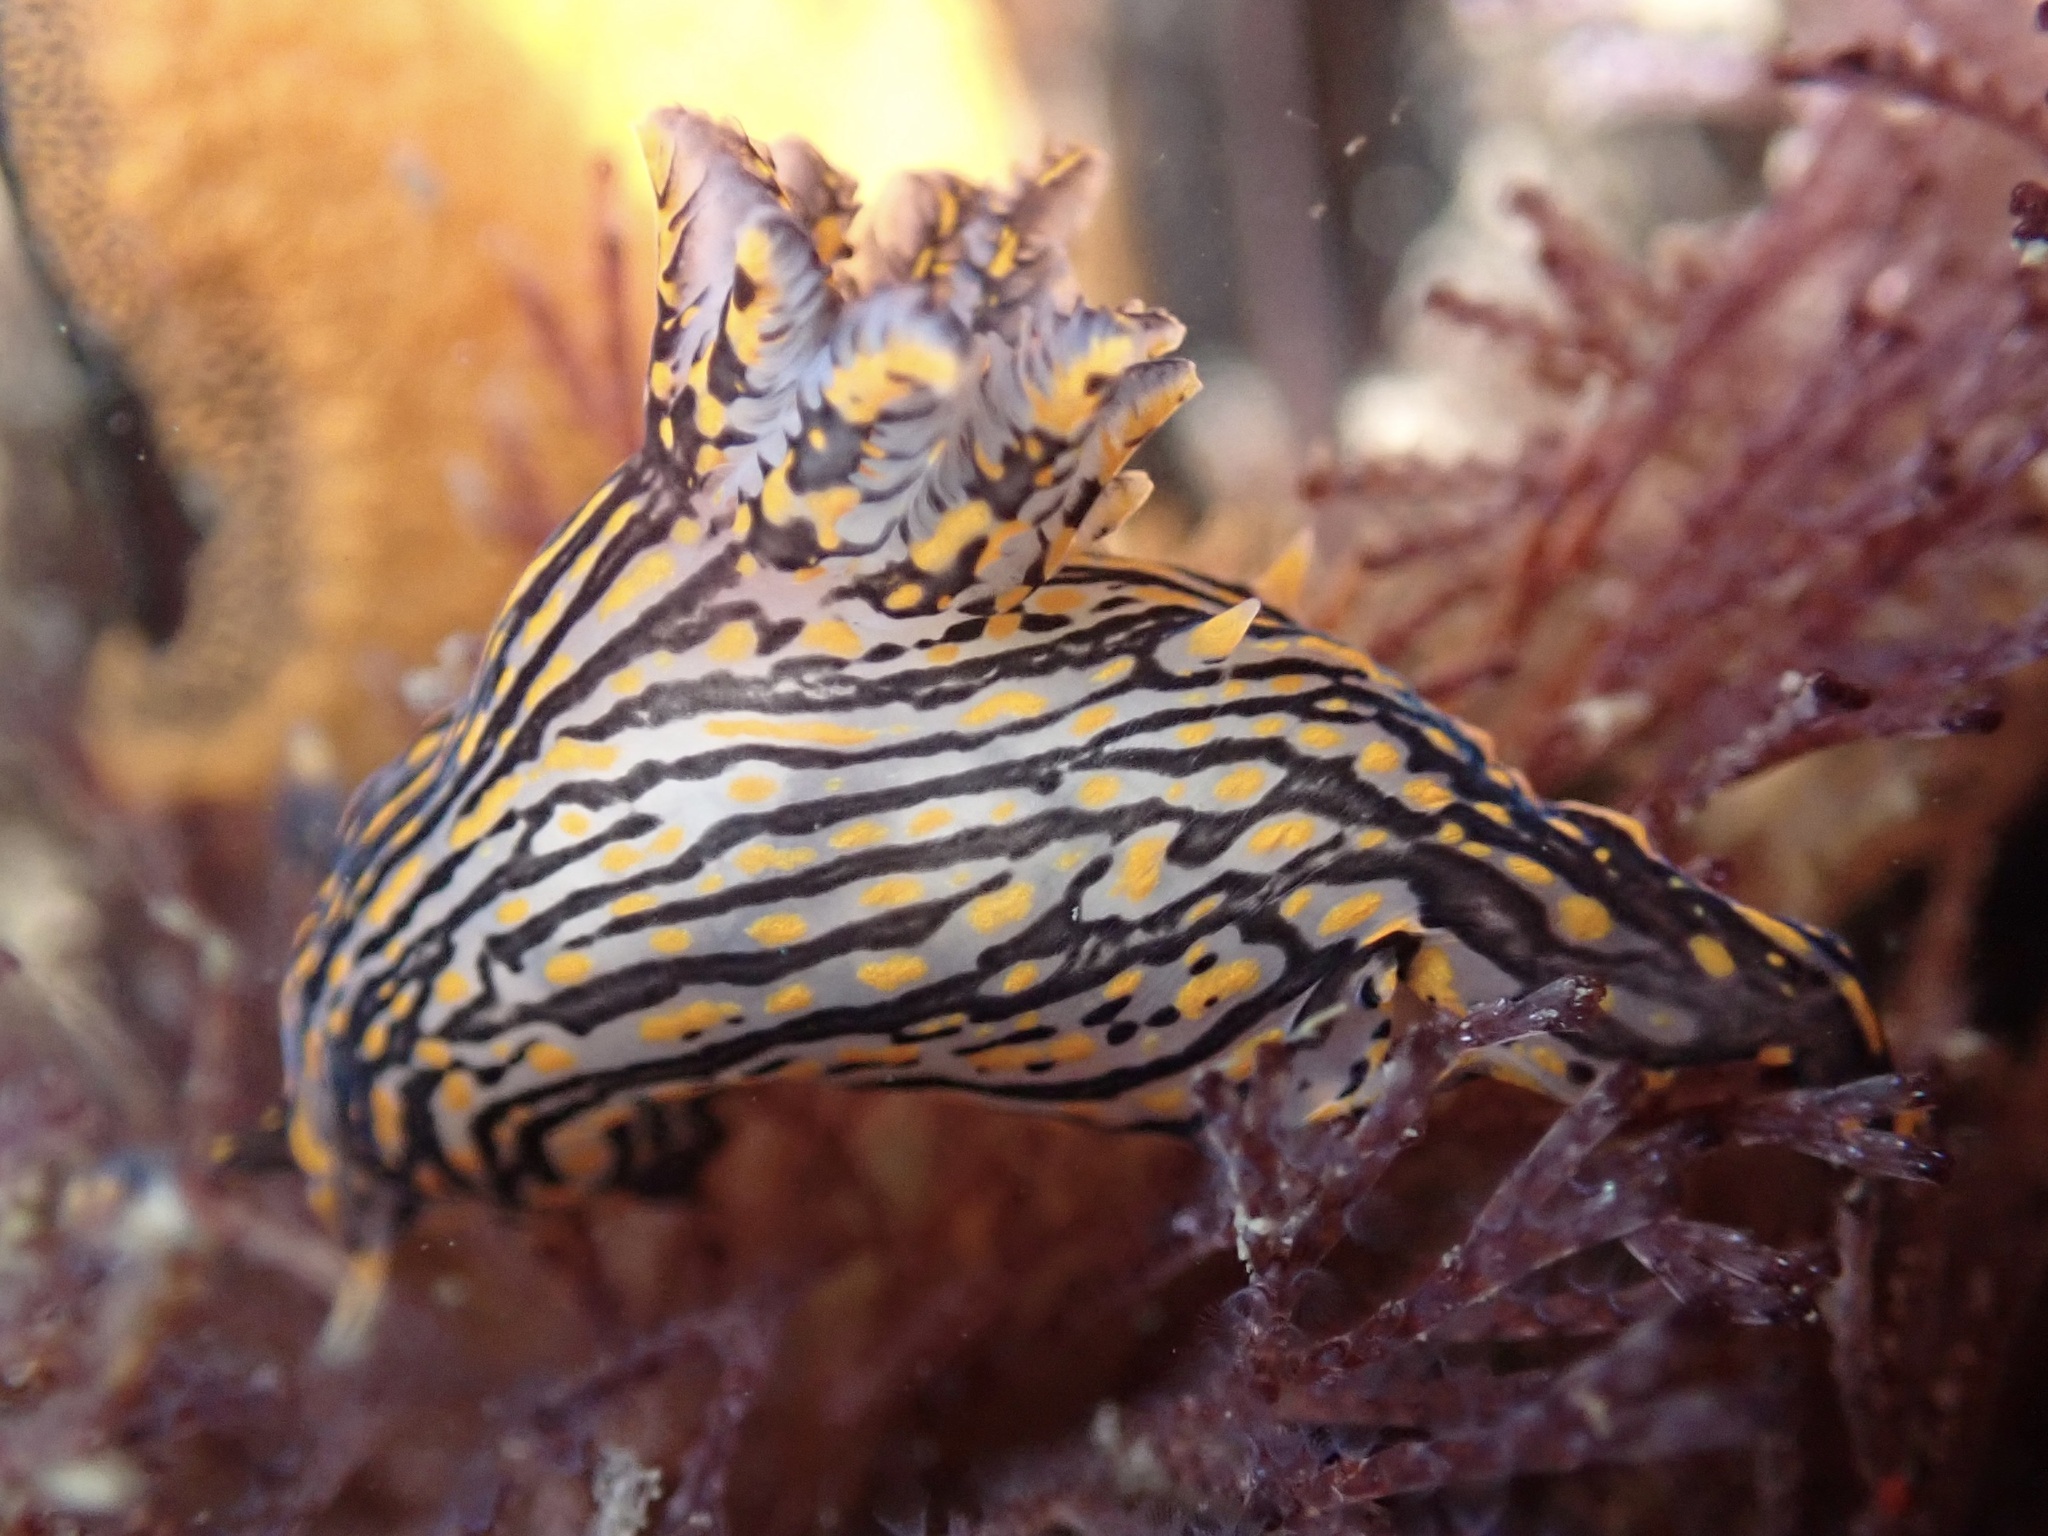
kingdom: Animalia
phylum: Mollusca
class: Gastropoda
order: Nudibranchia
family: Polyceridae
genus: Polycera
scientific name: Polycera atra
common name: Orange-spike polycera
